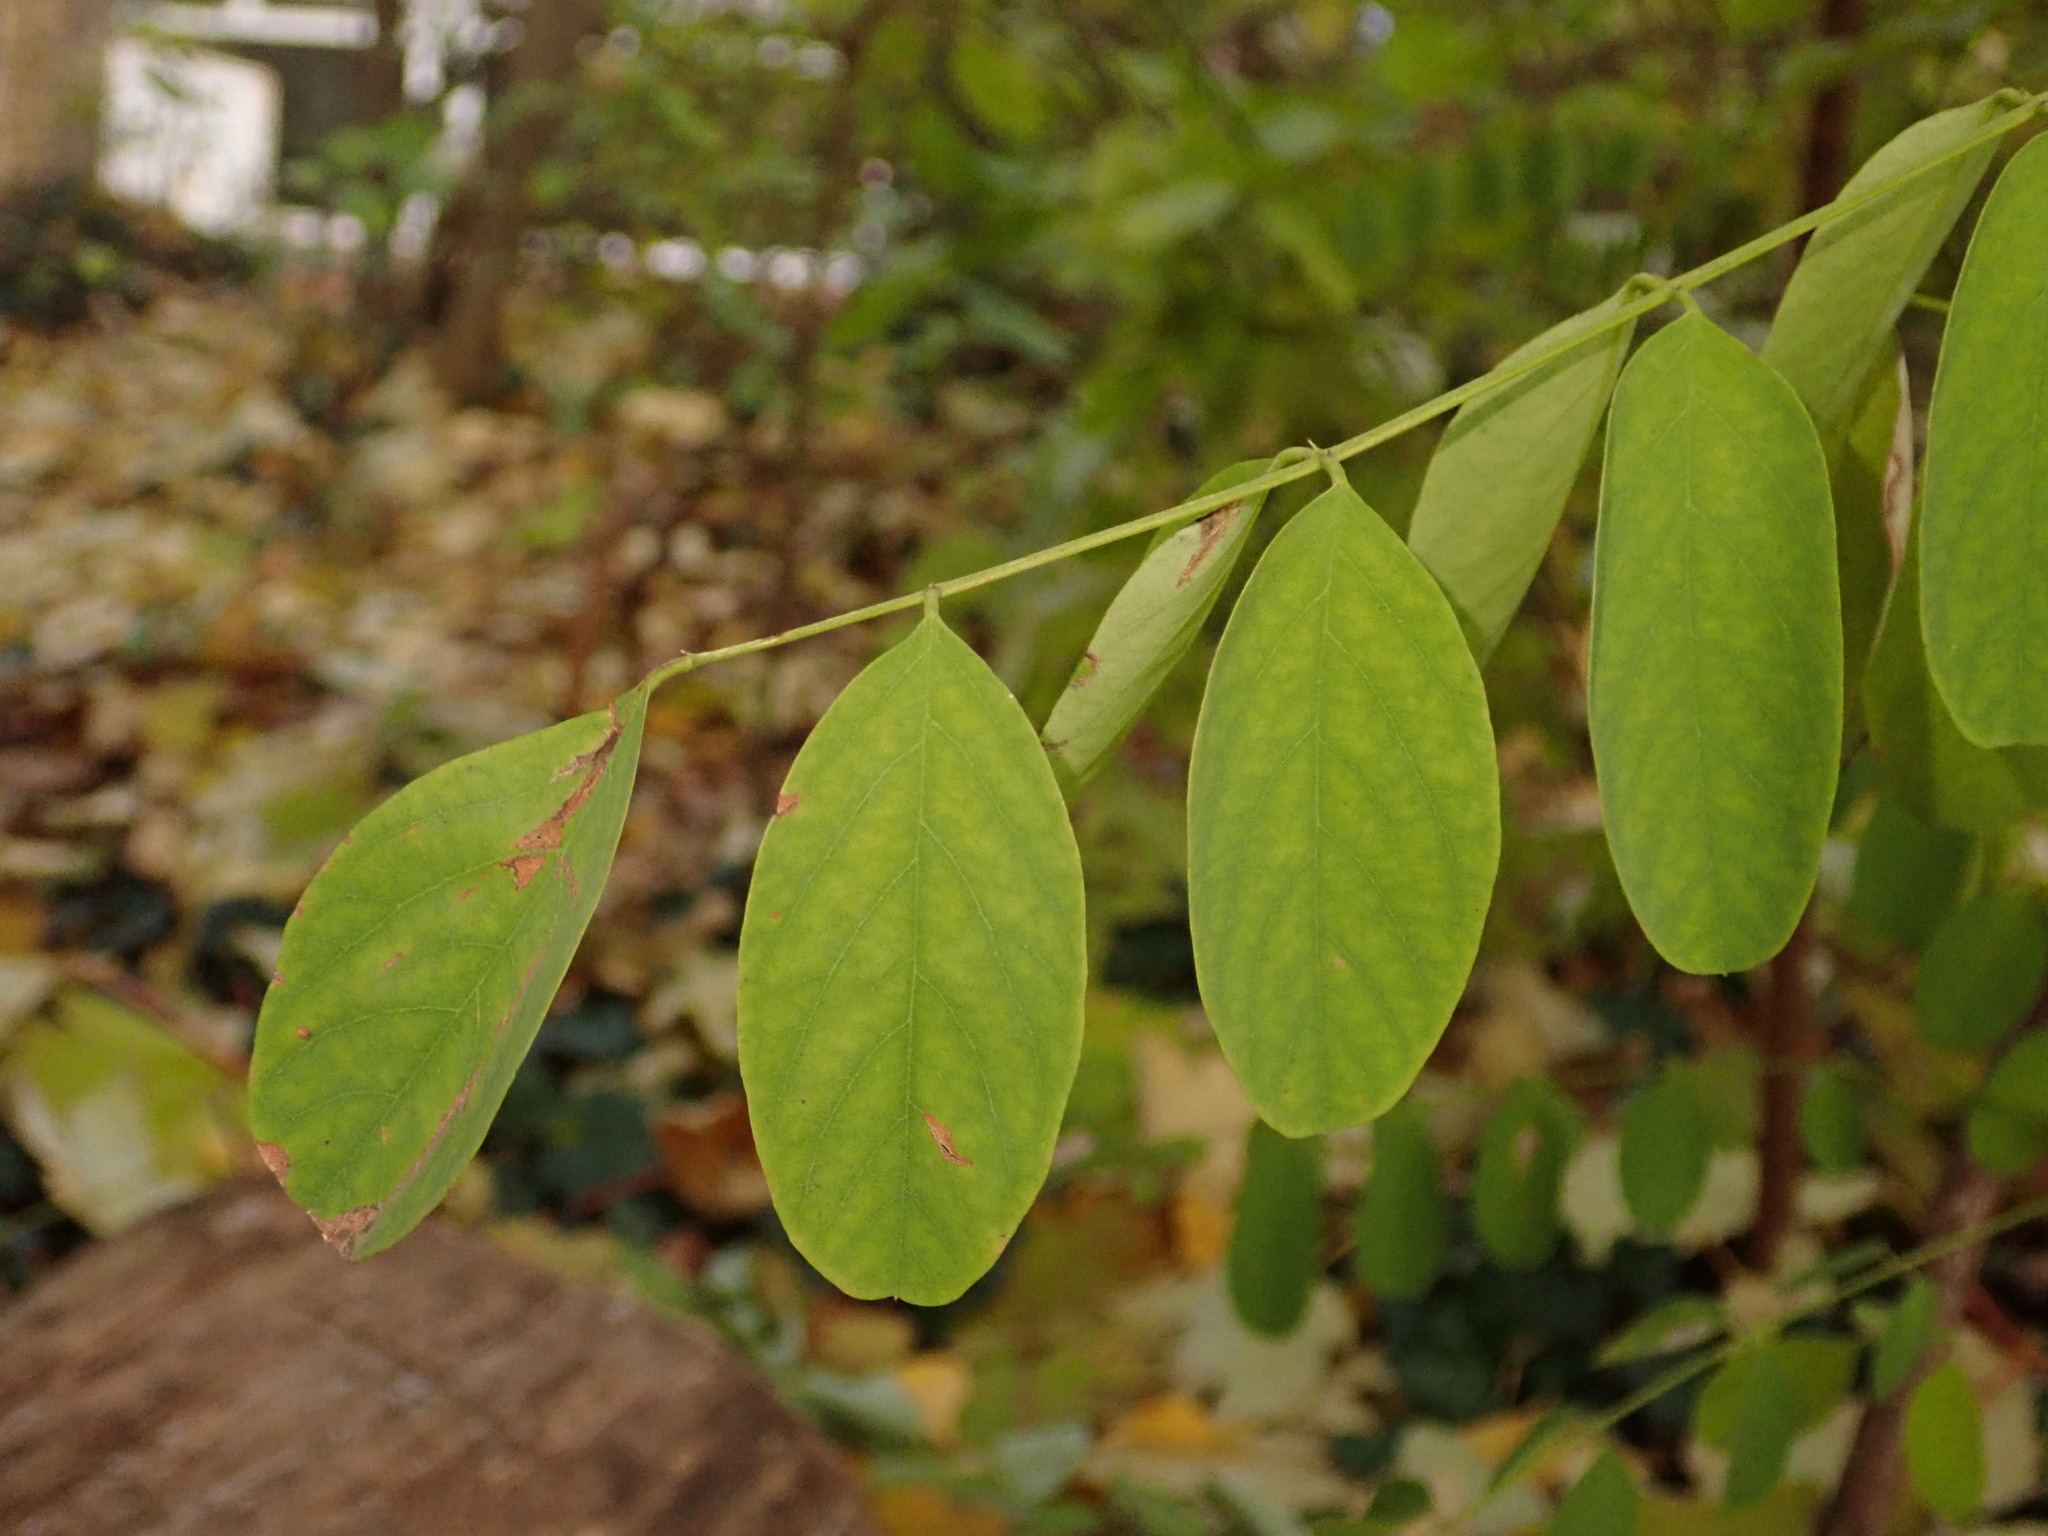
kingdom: Plantae
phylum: Tracheophyta
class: Magnoliopsida
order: Fabales
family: Fabaceae
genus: Robinia
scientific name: Robinia pseudoacacia
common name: Black locust
